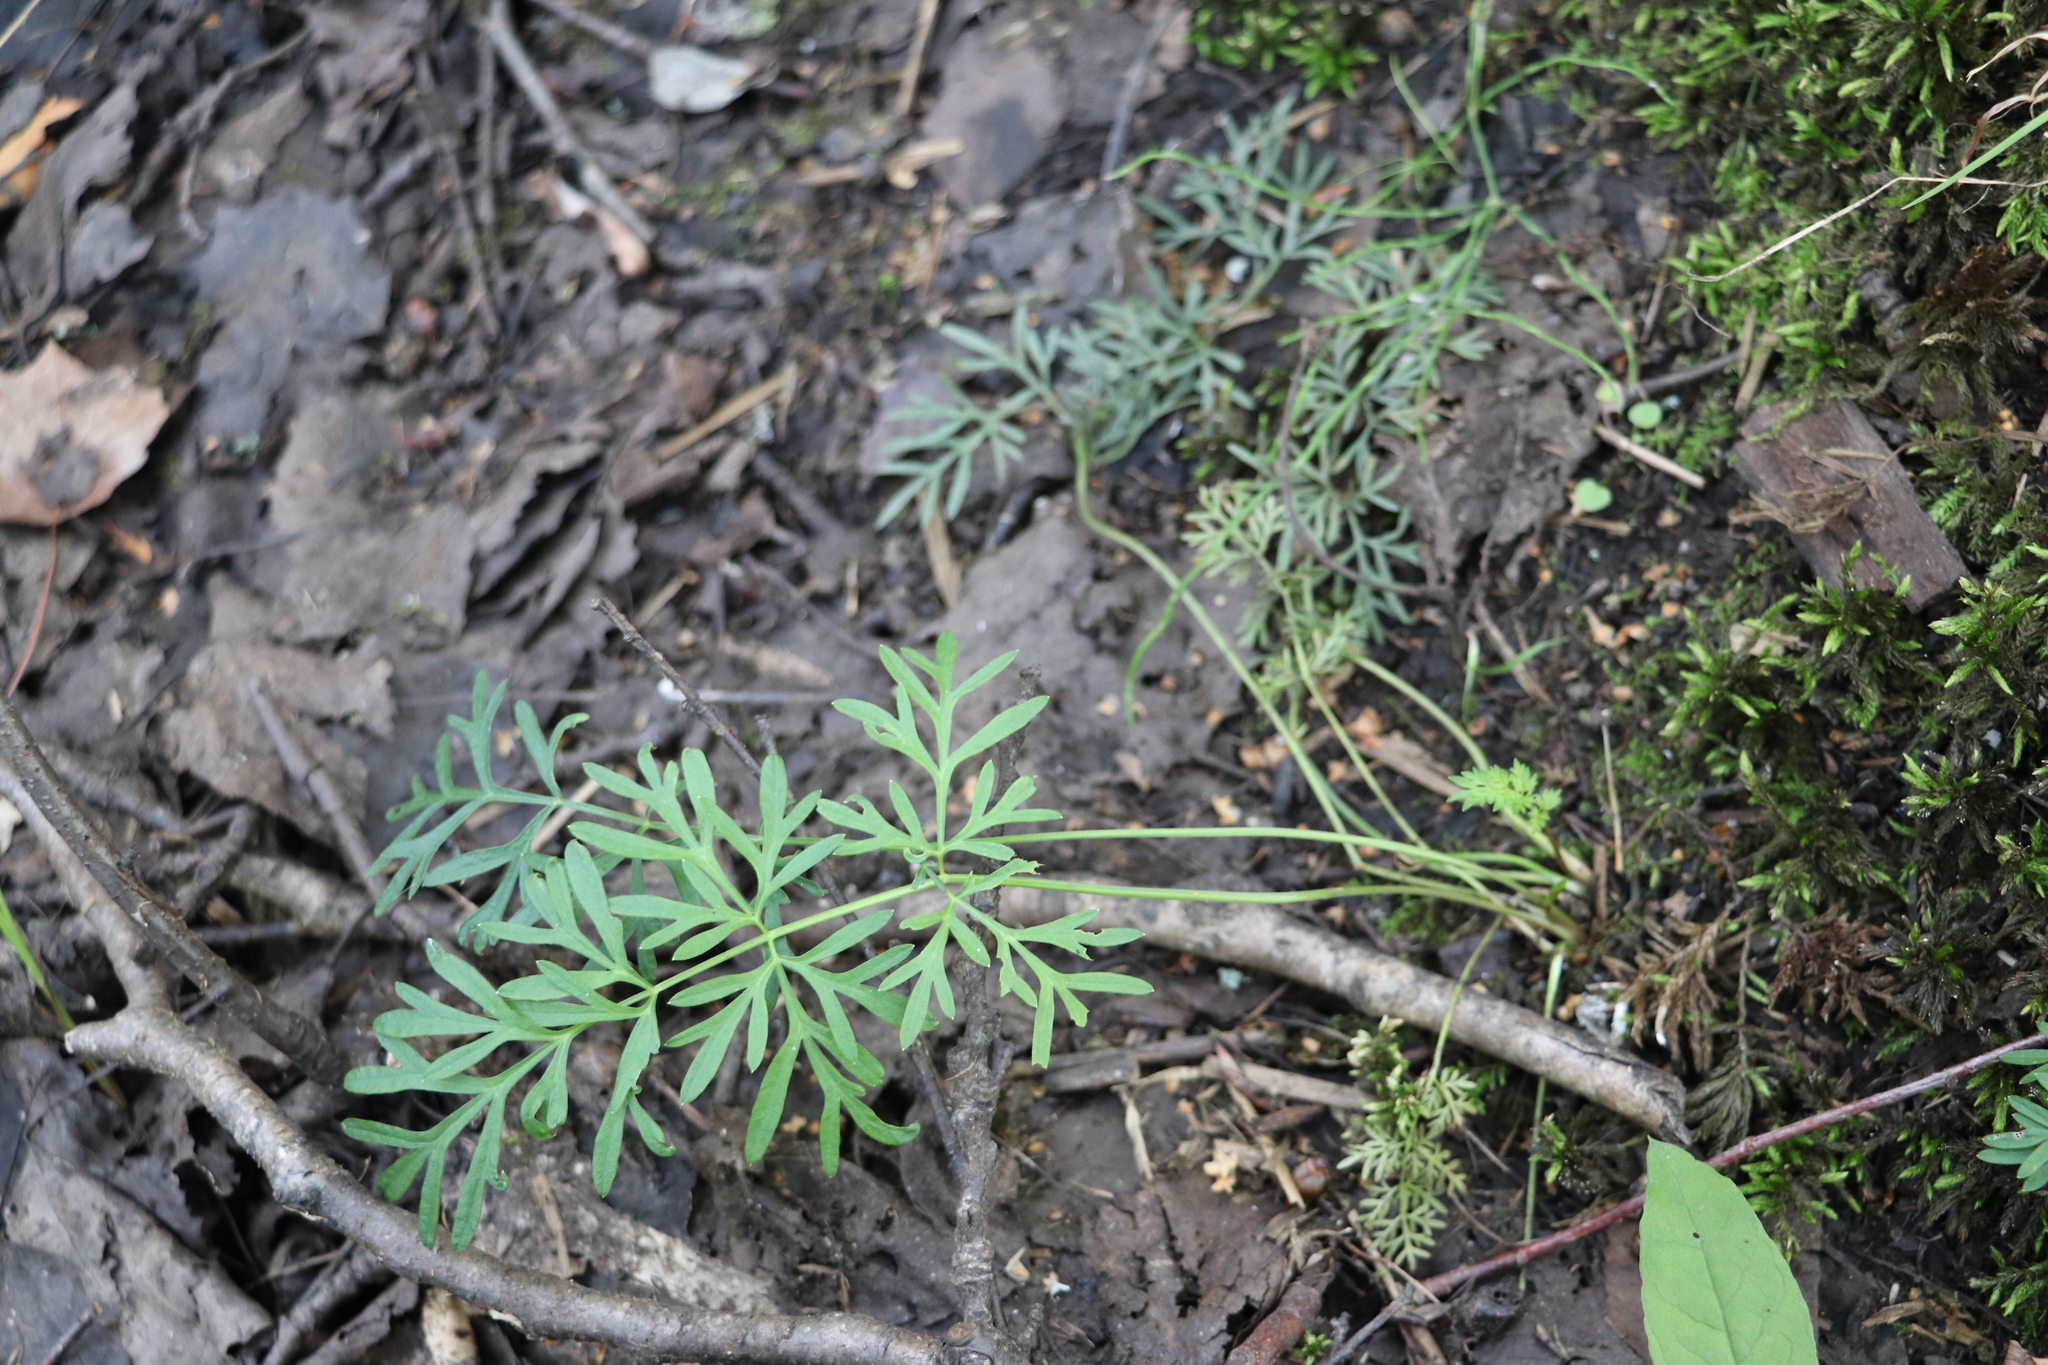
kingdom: Plantae
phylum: Tracheophyta
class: Magnoliopsida
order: Apiales
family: Apiaceae
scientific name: Apiaceae
